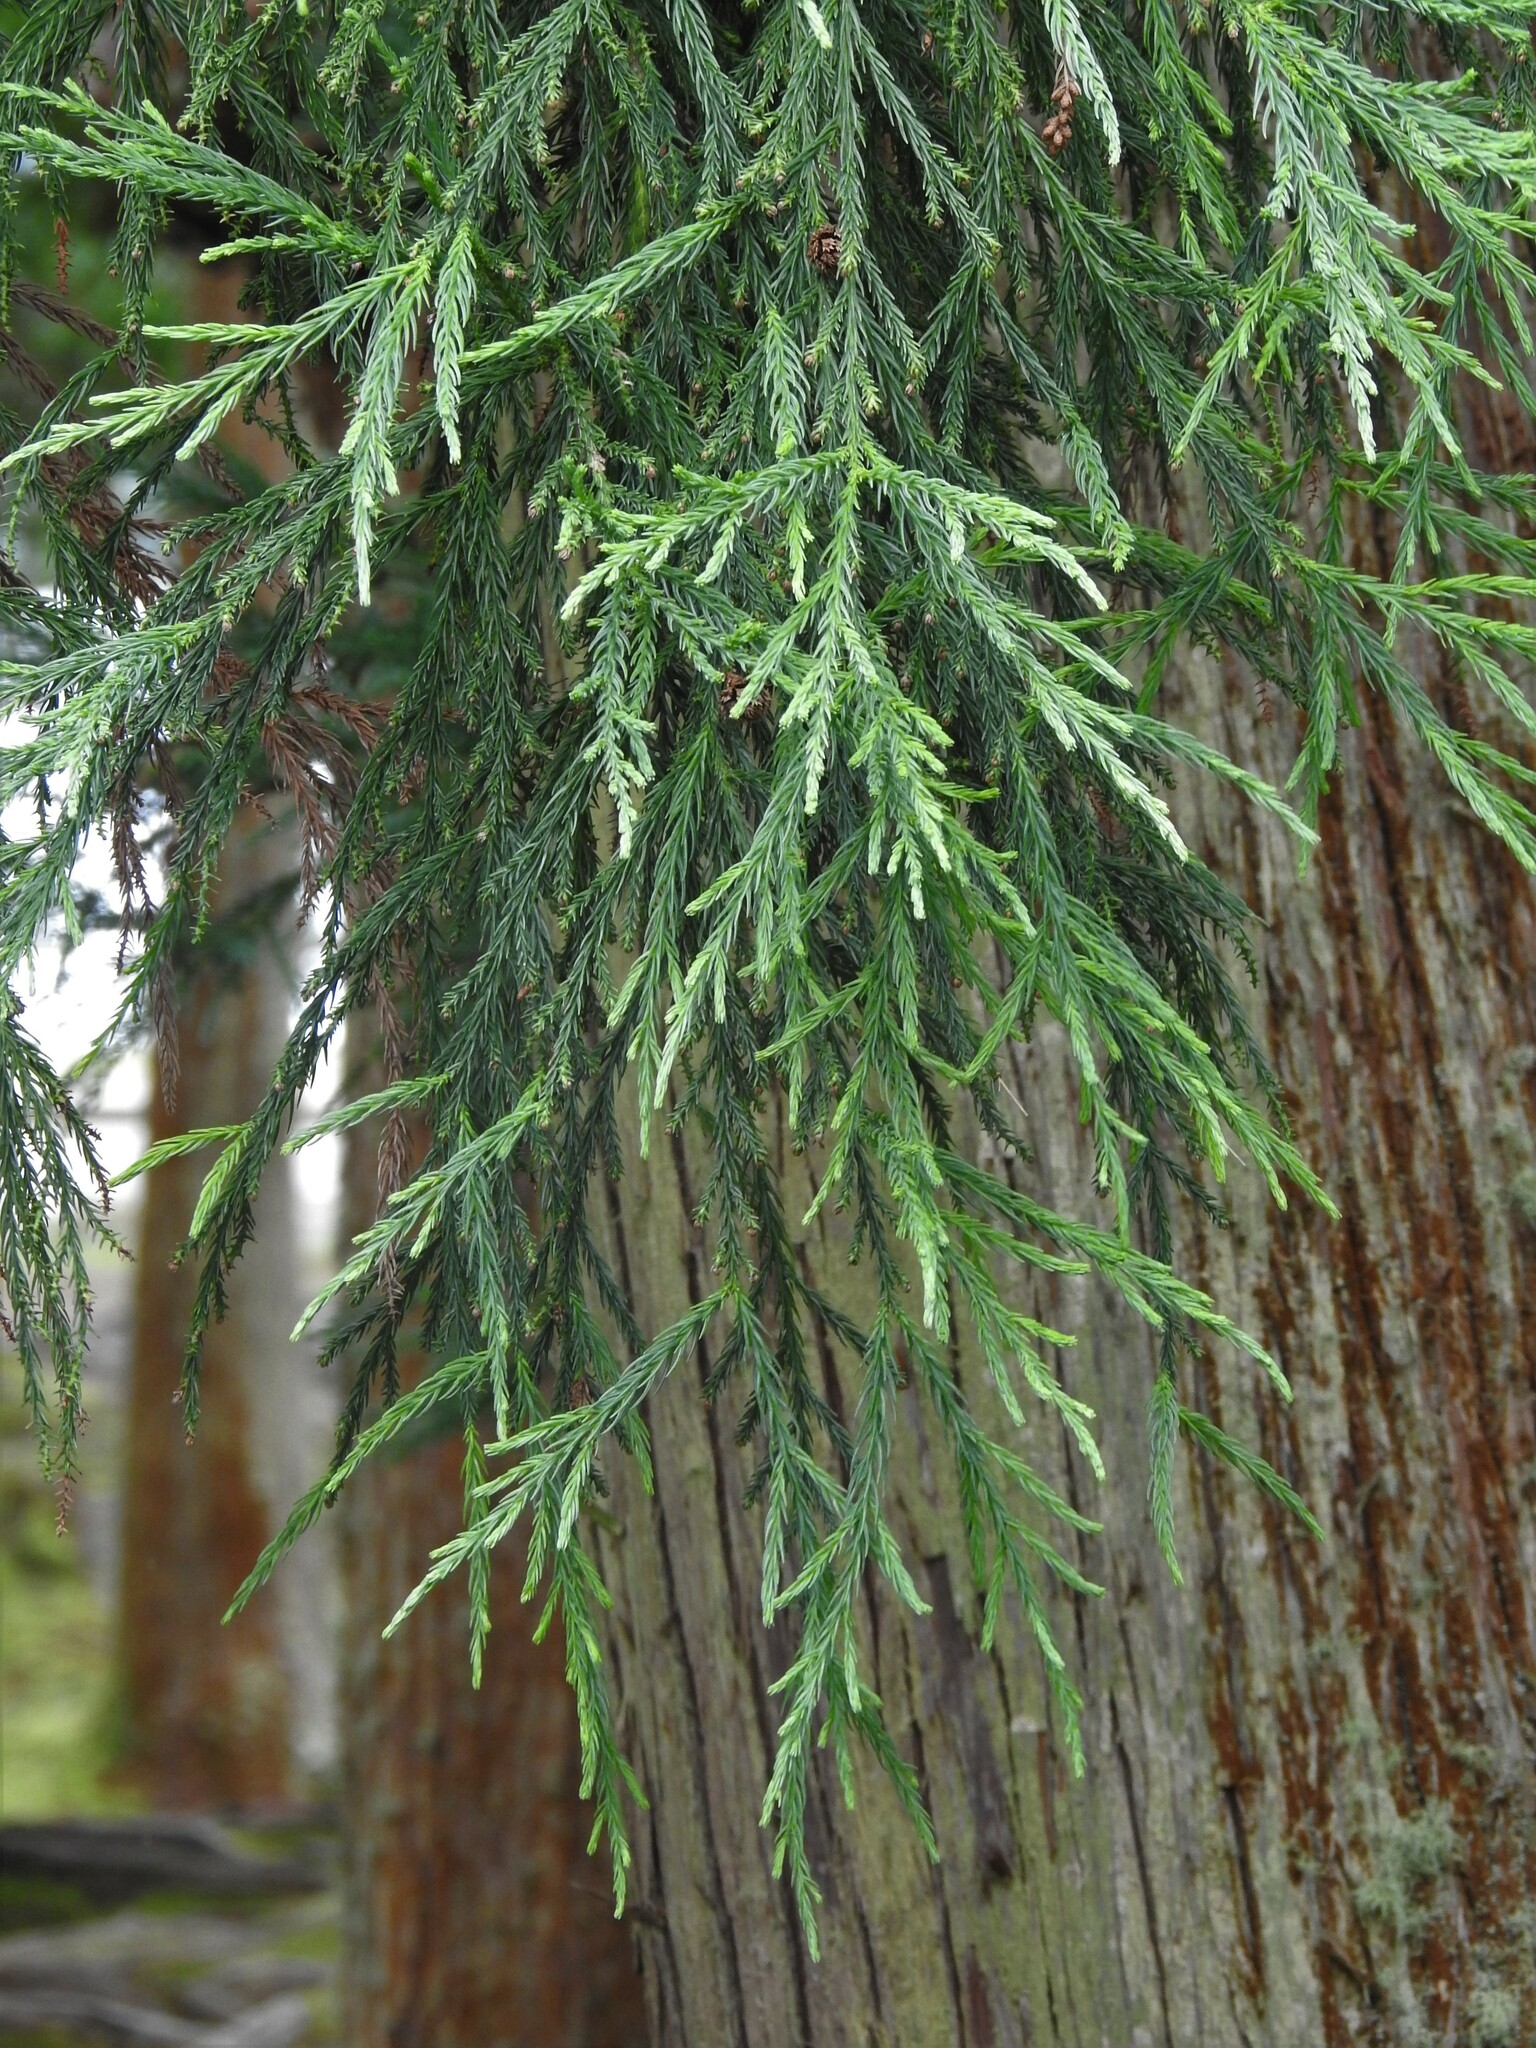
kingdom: Plantae
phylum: Tracheophyta
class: Pinopsida
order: Pinales
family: Cupressaceae
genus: Cryptomeria
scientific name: Cryptomeria japonica
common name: Japanese cedar
